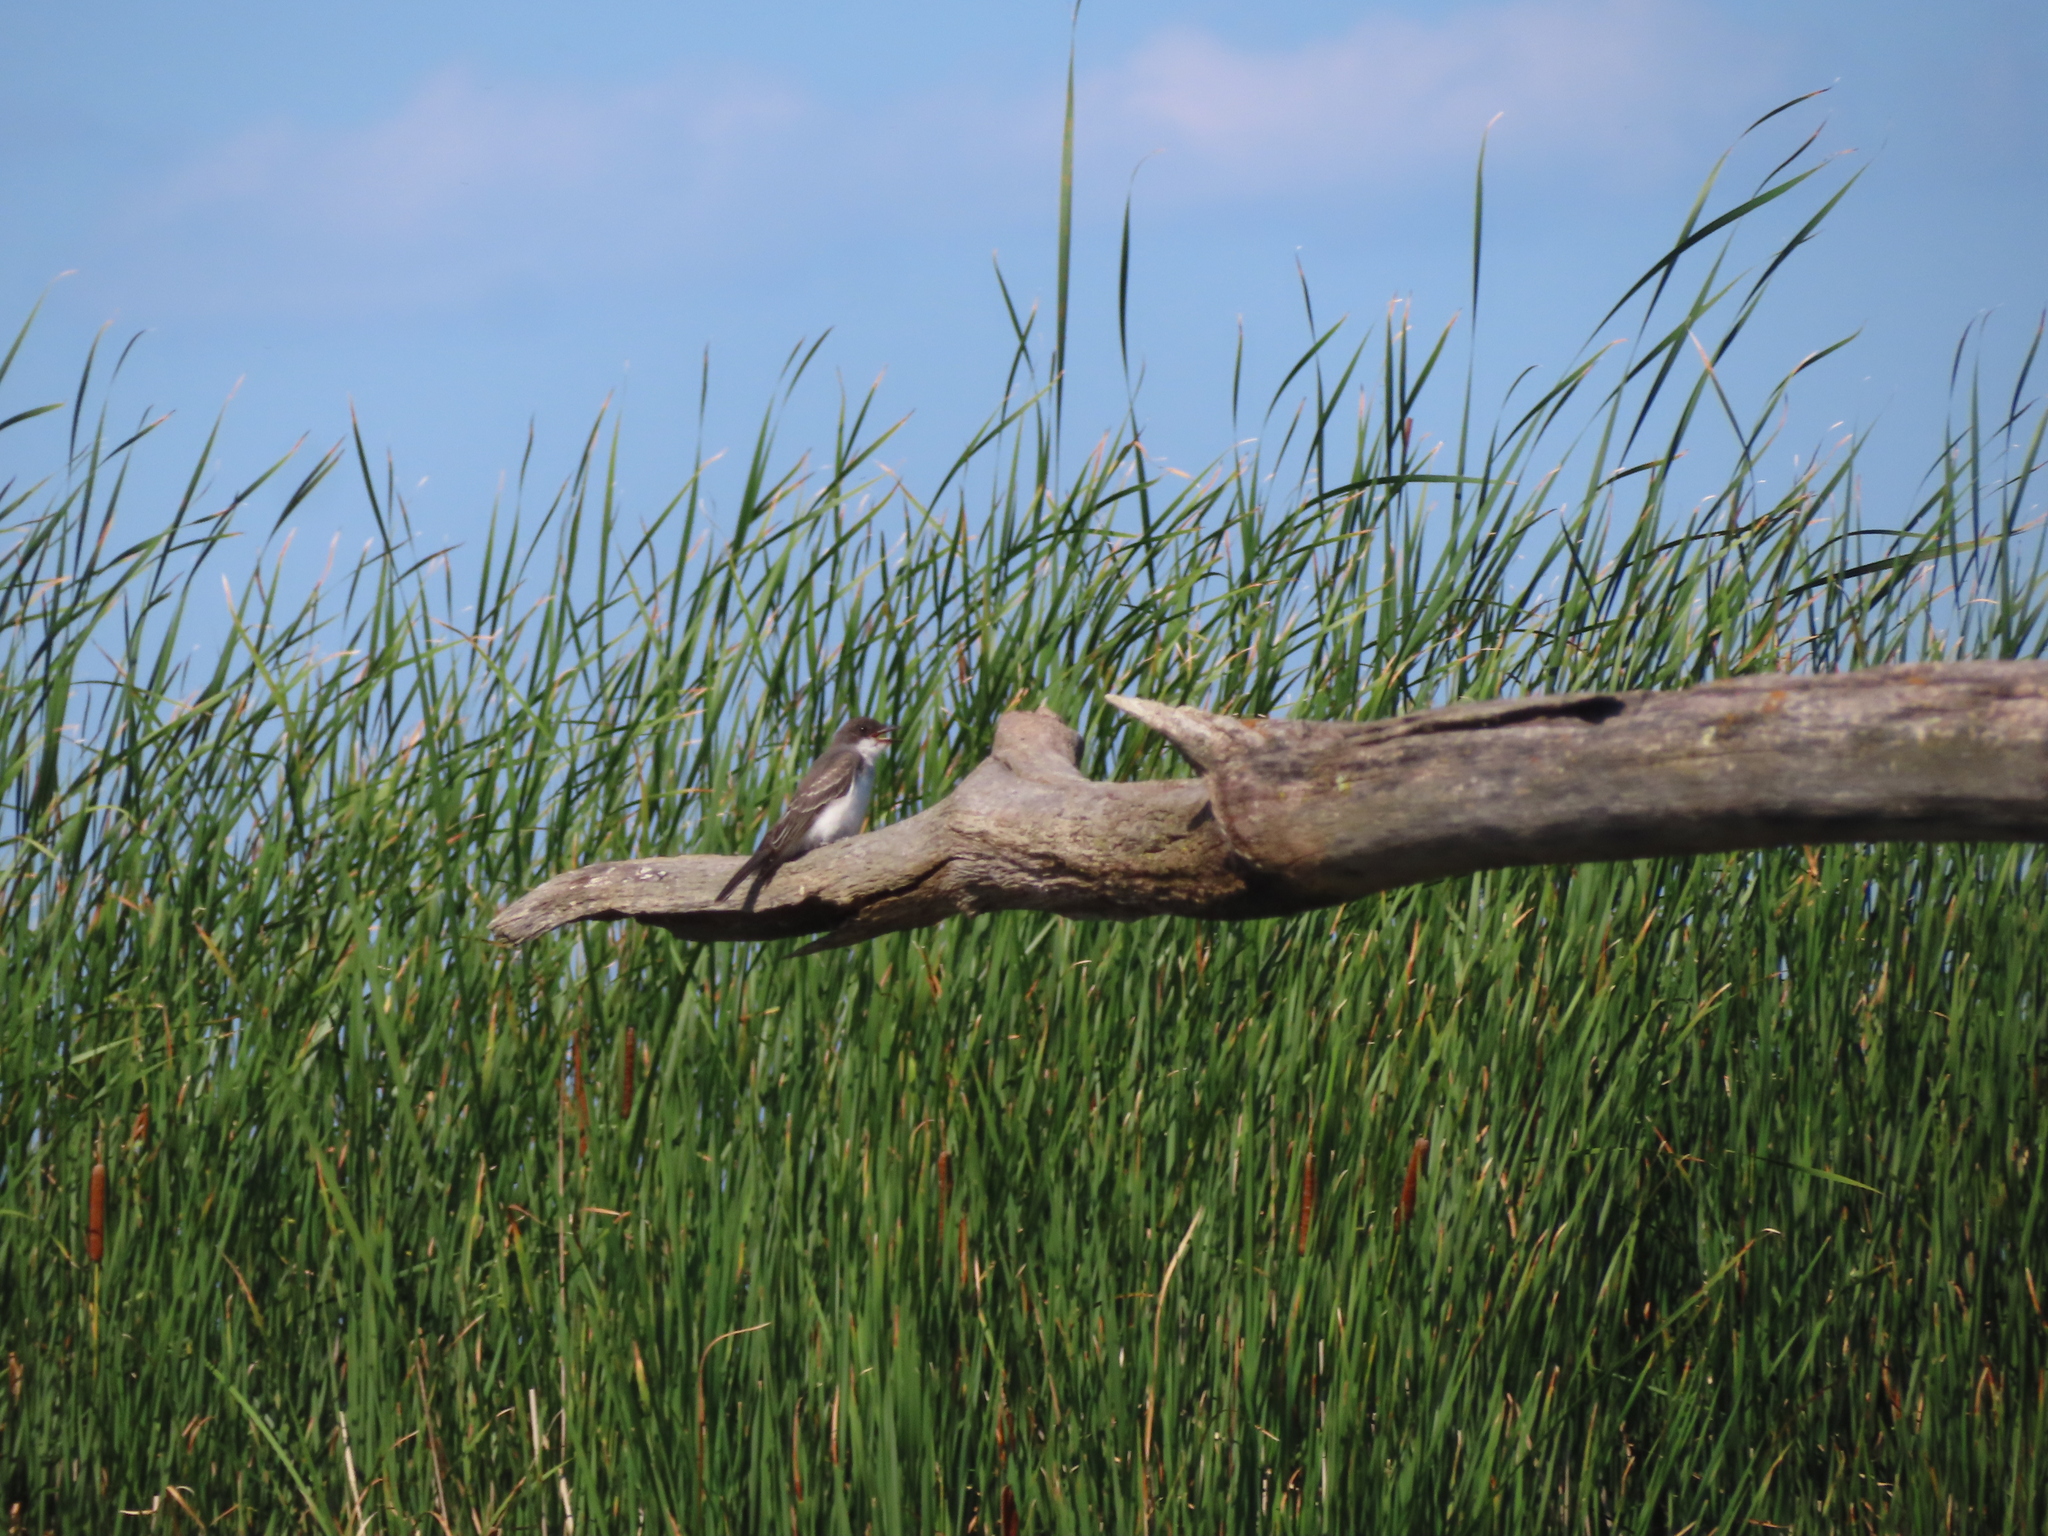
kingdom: Animalia
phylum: Chordata
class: Aves
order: Passeriformes
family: Tyrannidae
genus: Tyrannus
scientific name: Tyrannus tyrannus
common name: Eastern kingbird
